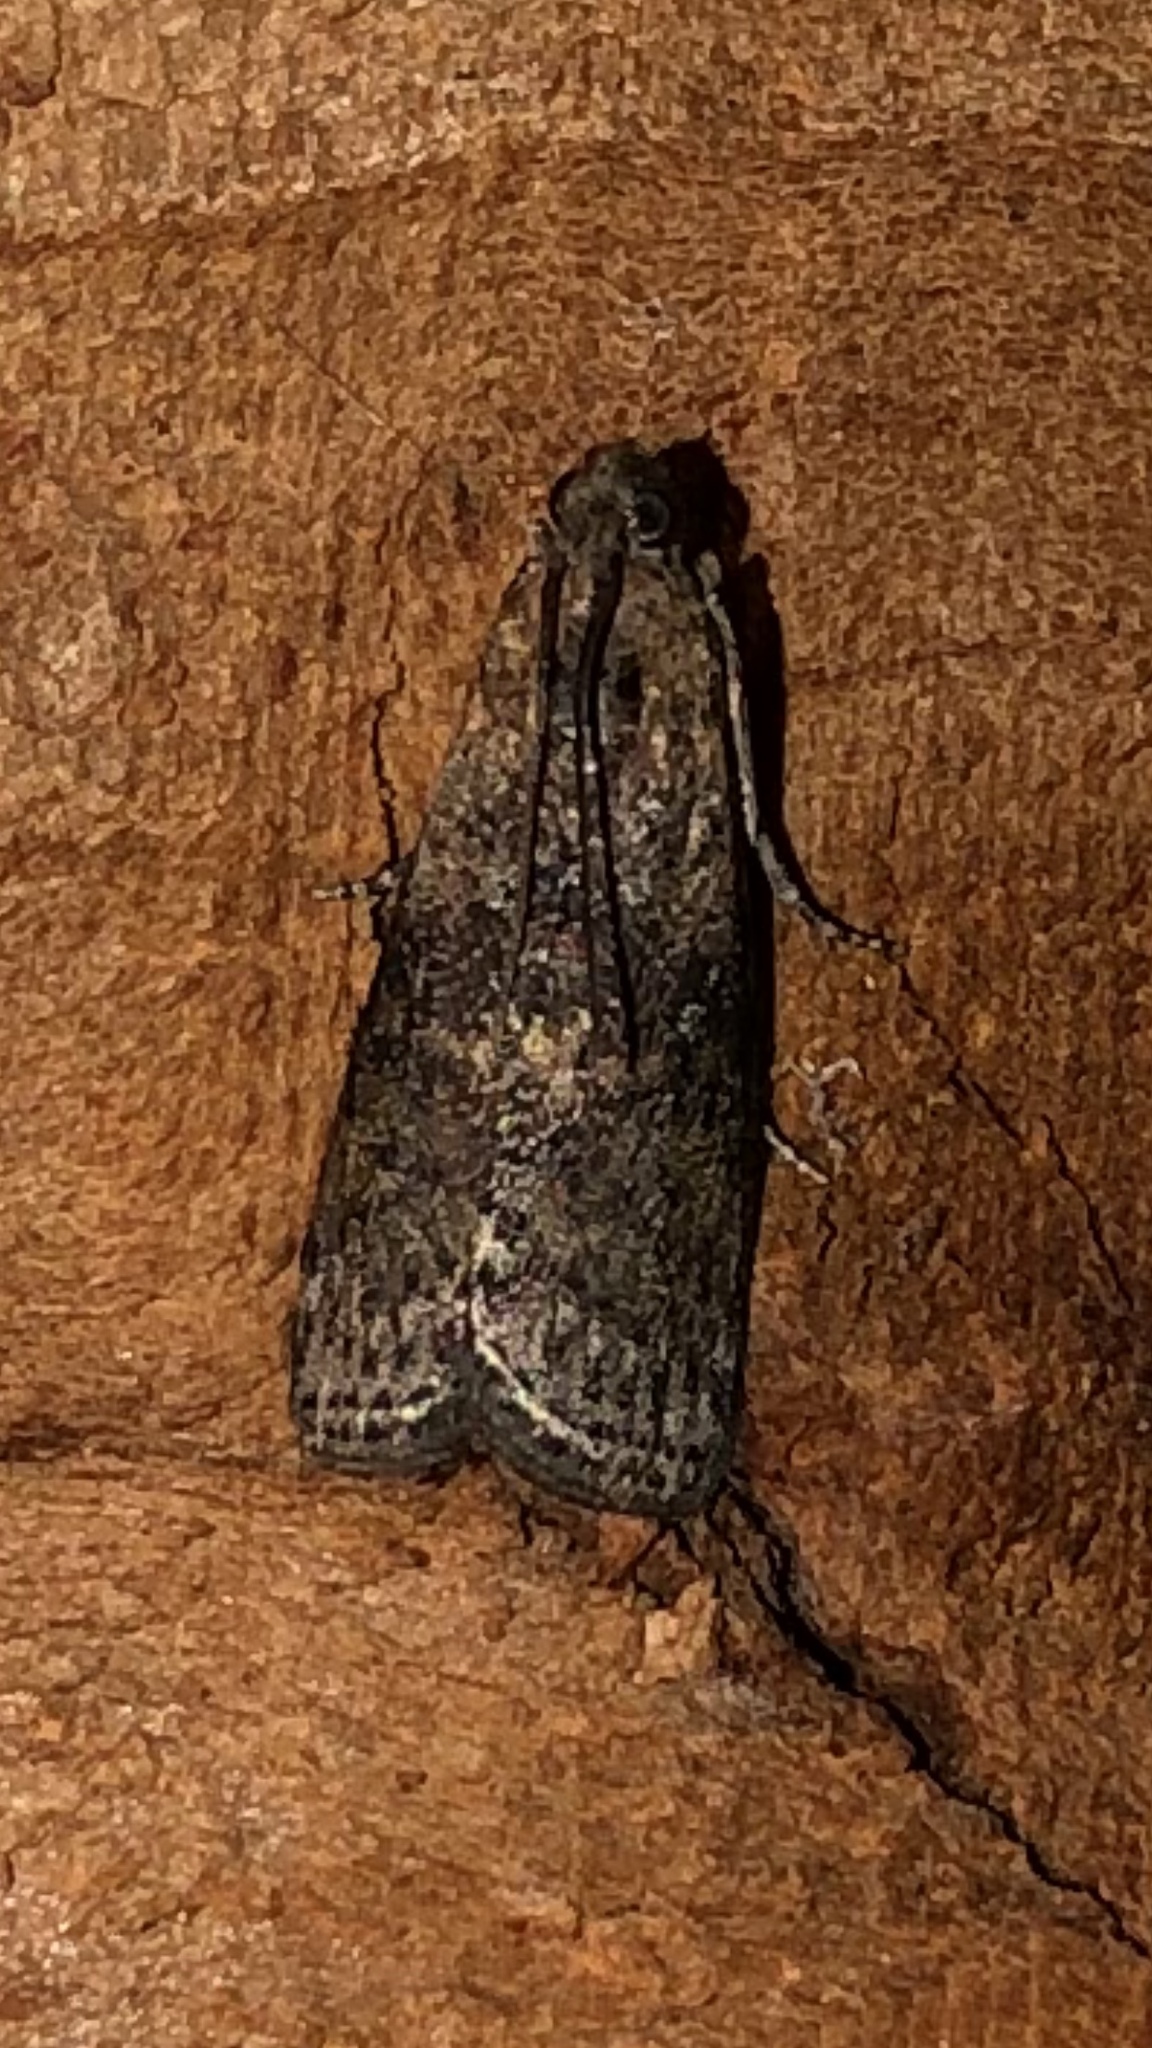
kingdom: Animalia
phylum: Arthropoda
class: Insecta
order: Lepidoptera
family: Pyralidae
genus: Sciota
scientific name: Sciota celtidella
